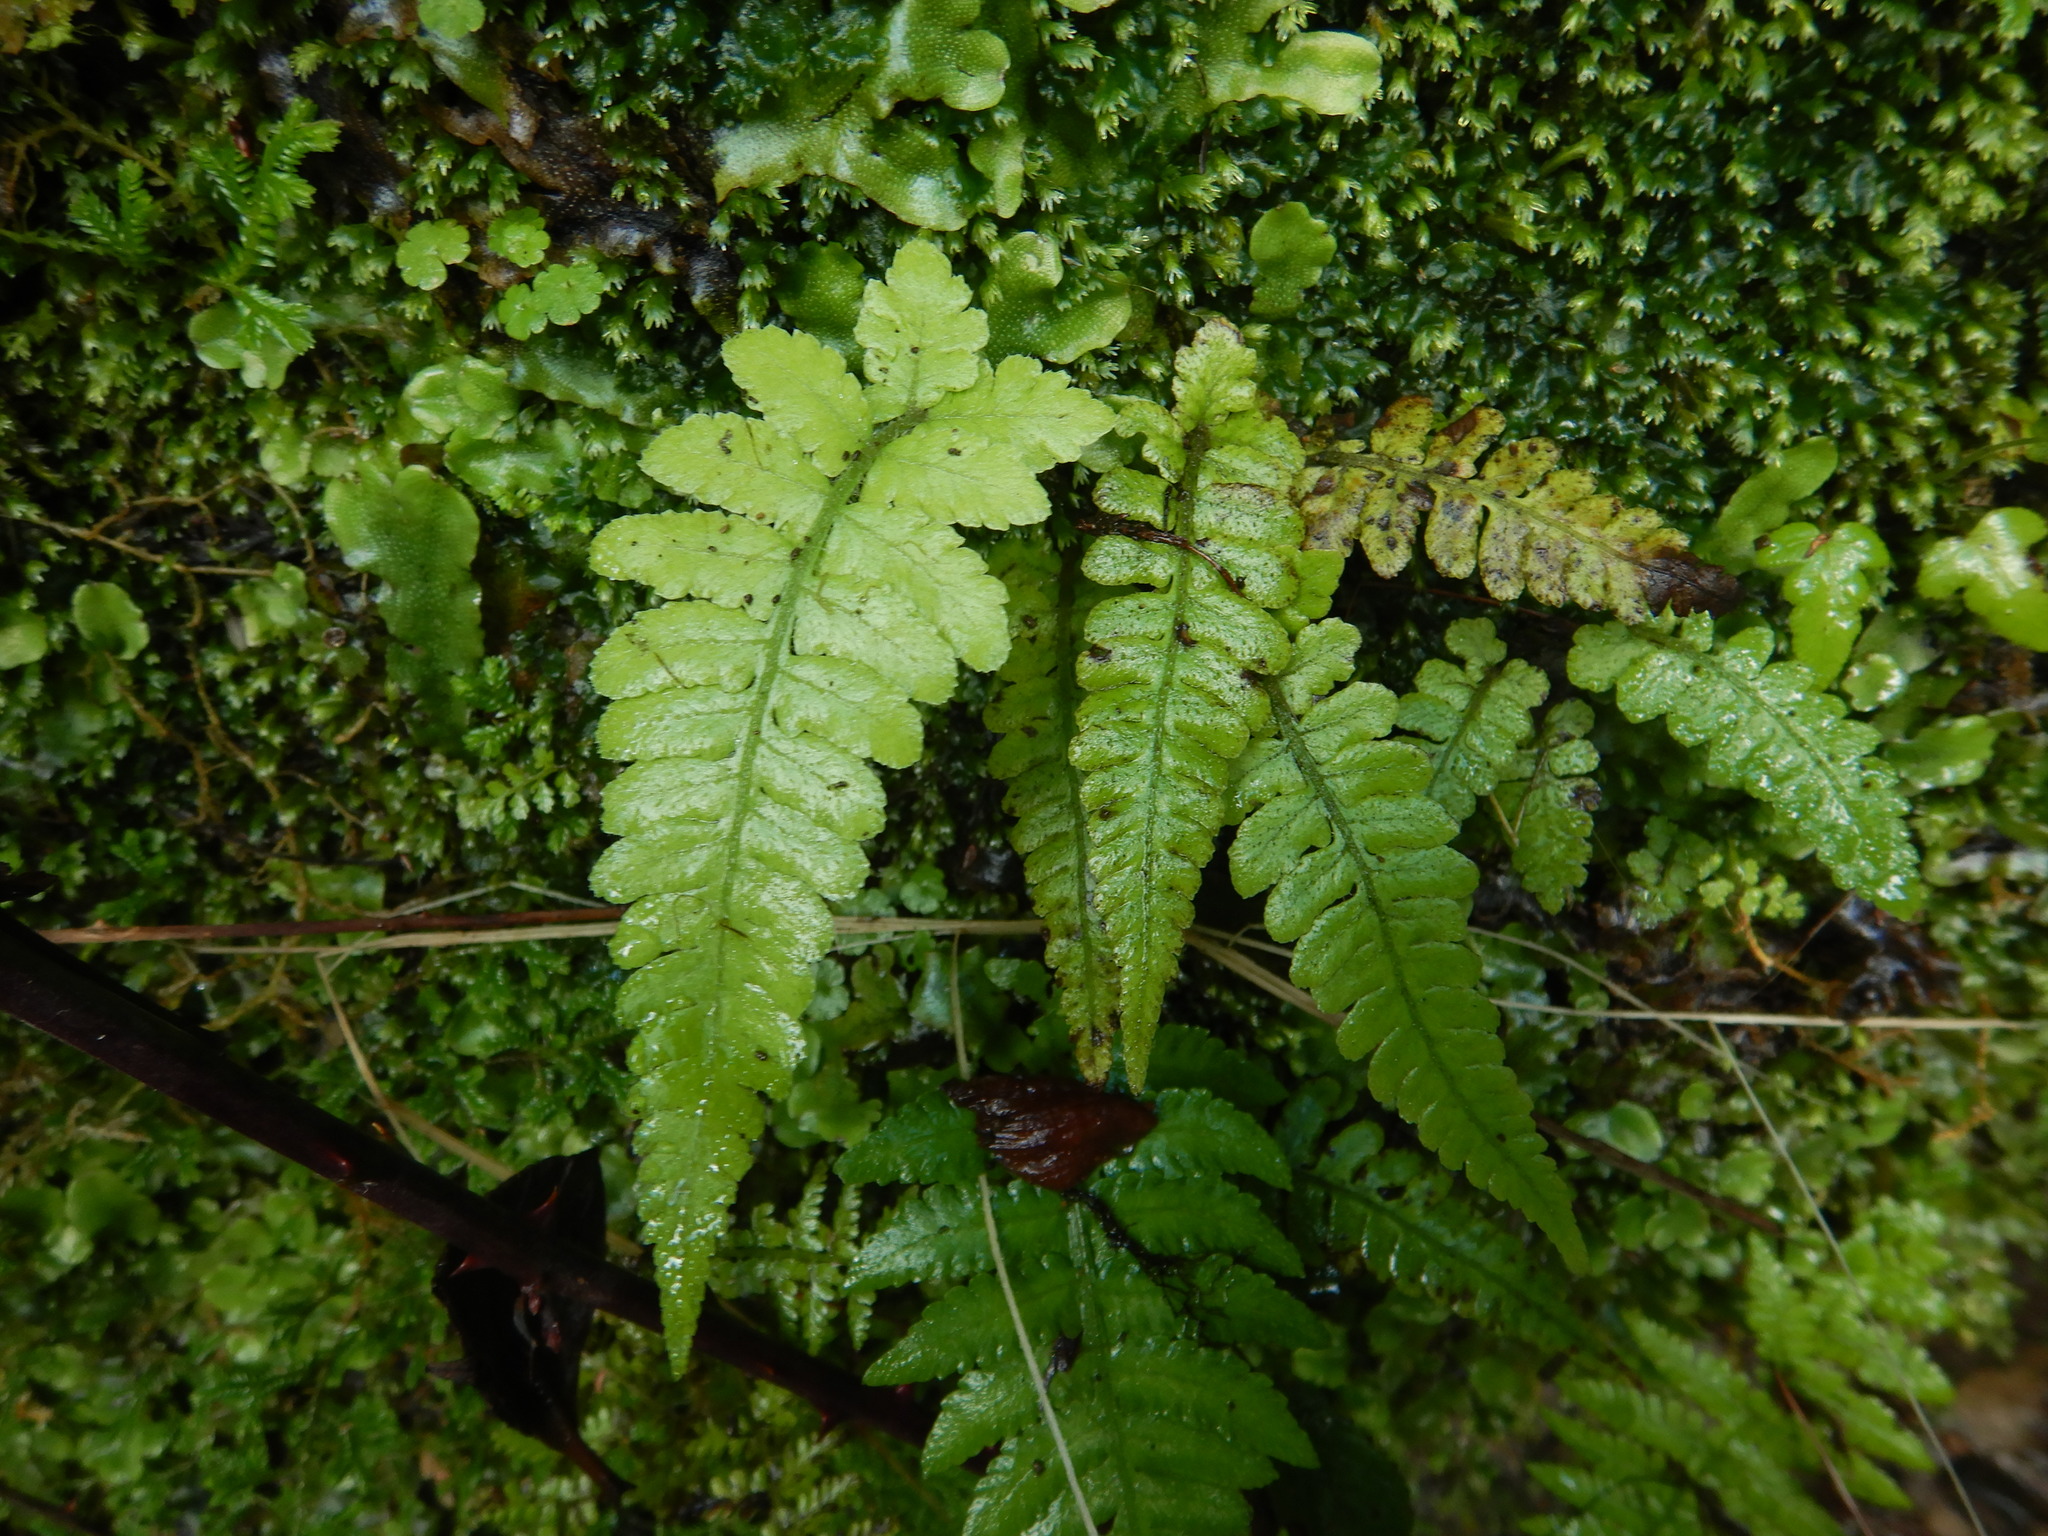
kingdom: Plantae
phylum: Tracheophyta
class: Polypodiopsida
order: Polypodiales
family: Athyriaceae
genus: Deparia
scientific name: Deparia petersenii
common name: Japanese false spleenwort
